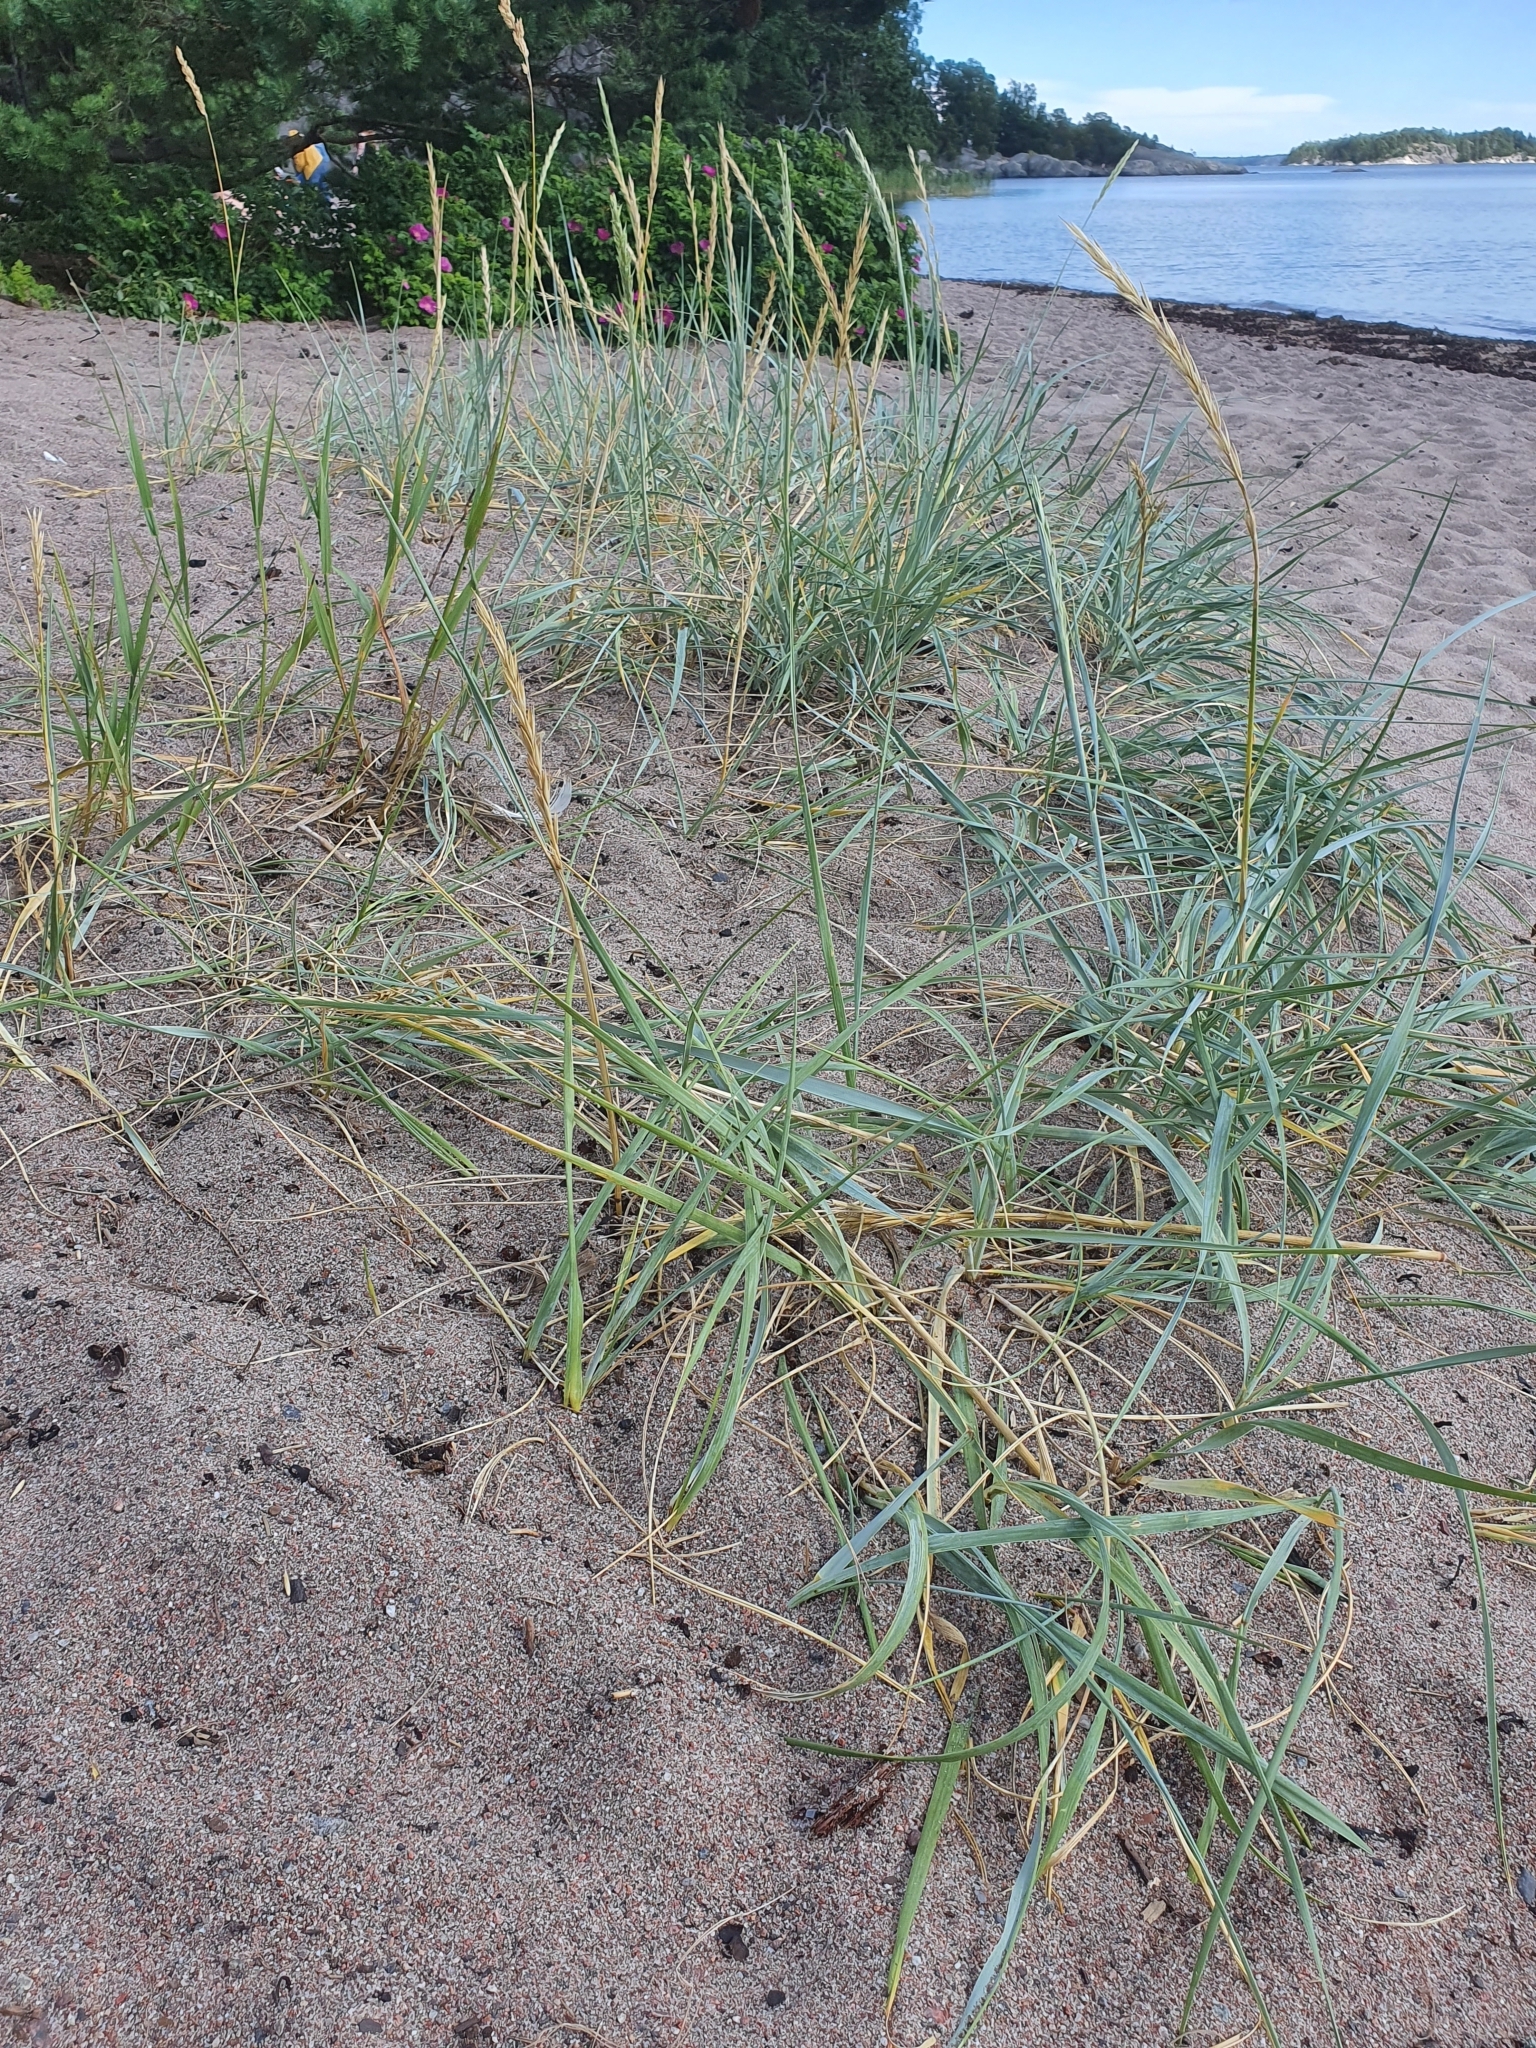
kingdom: Plantae
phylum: Tracheophyta
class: Liliopsida
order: Poales
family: Poaceae
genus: Leymus
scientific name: Leymus arenarius
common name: Lyme-grass
